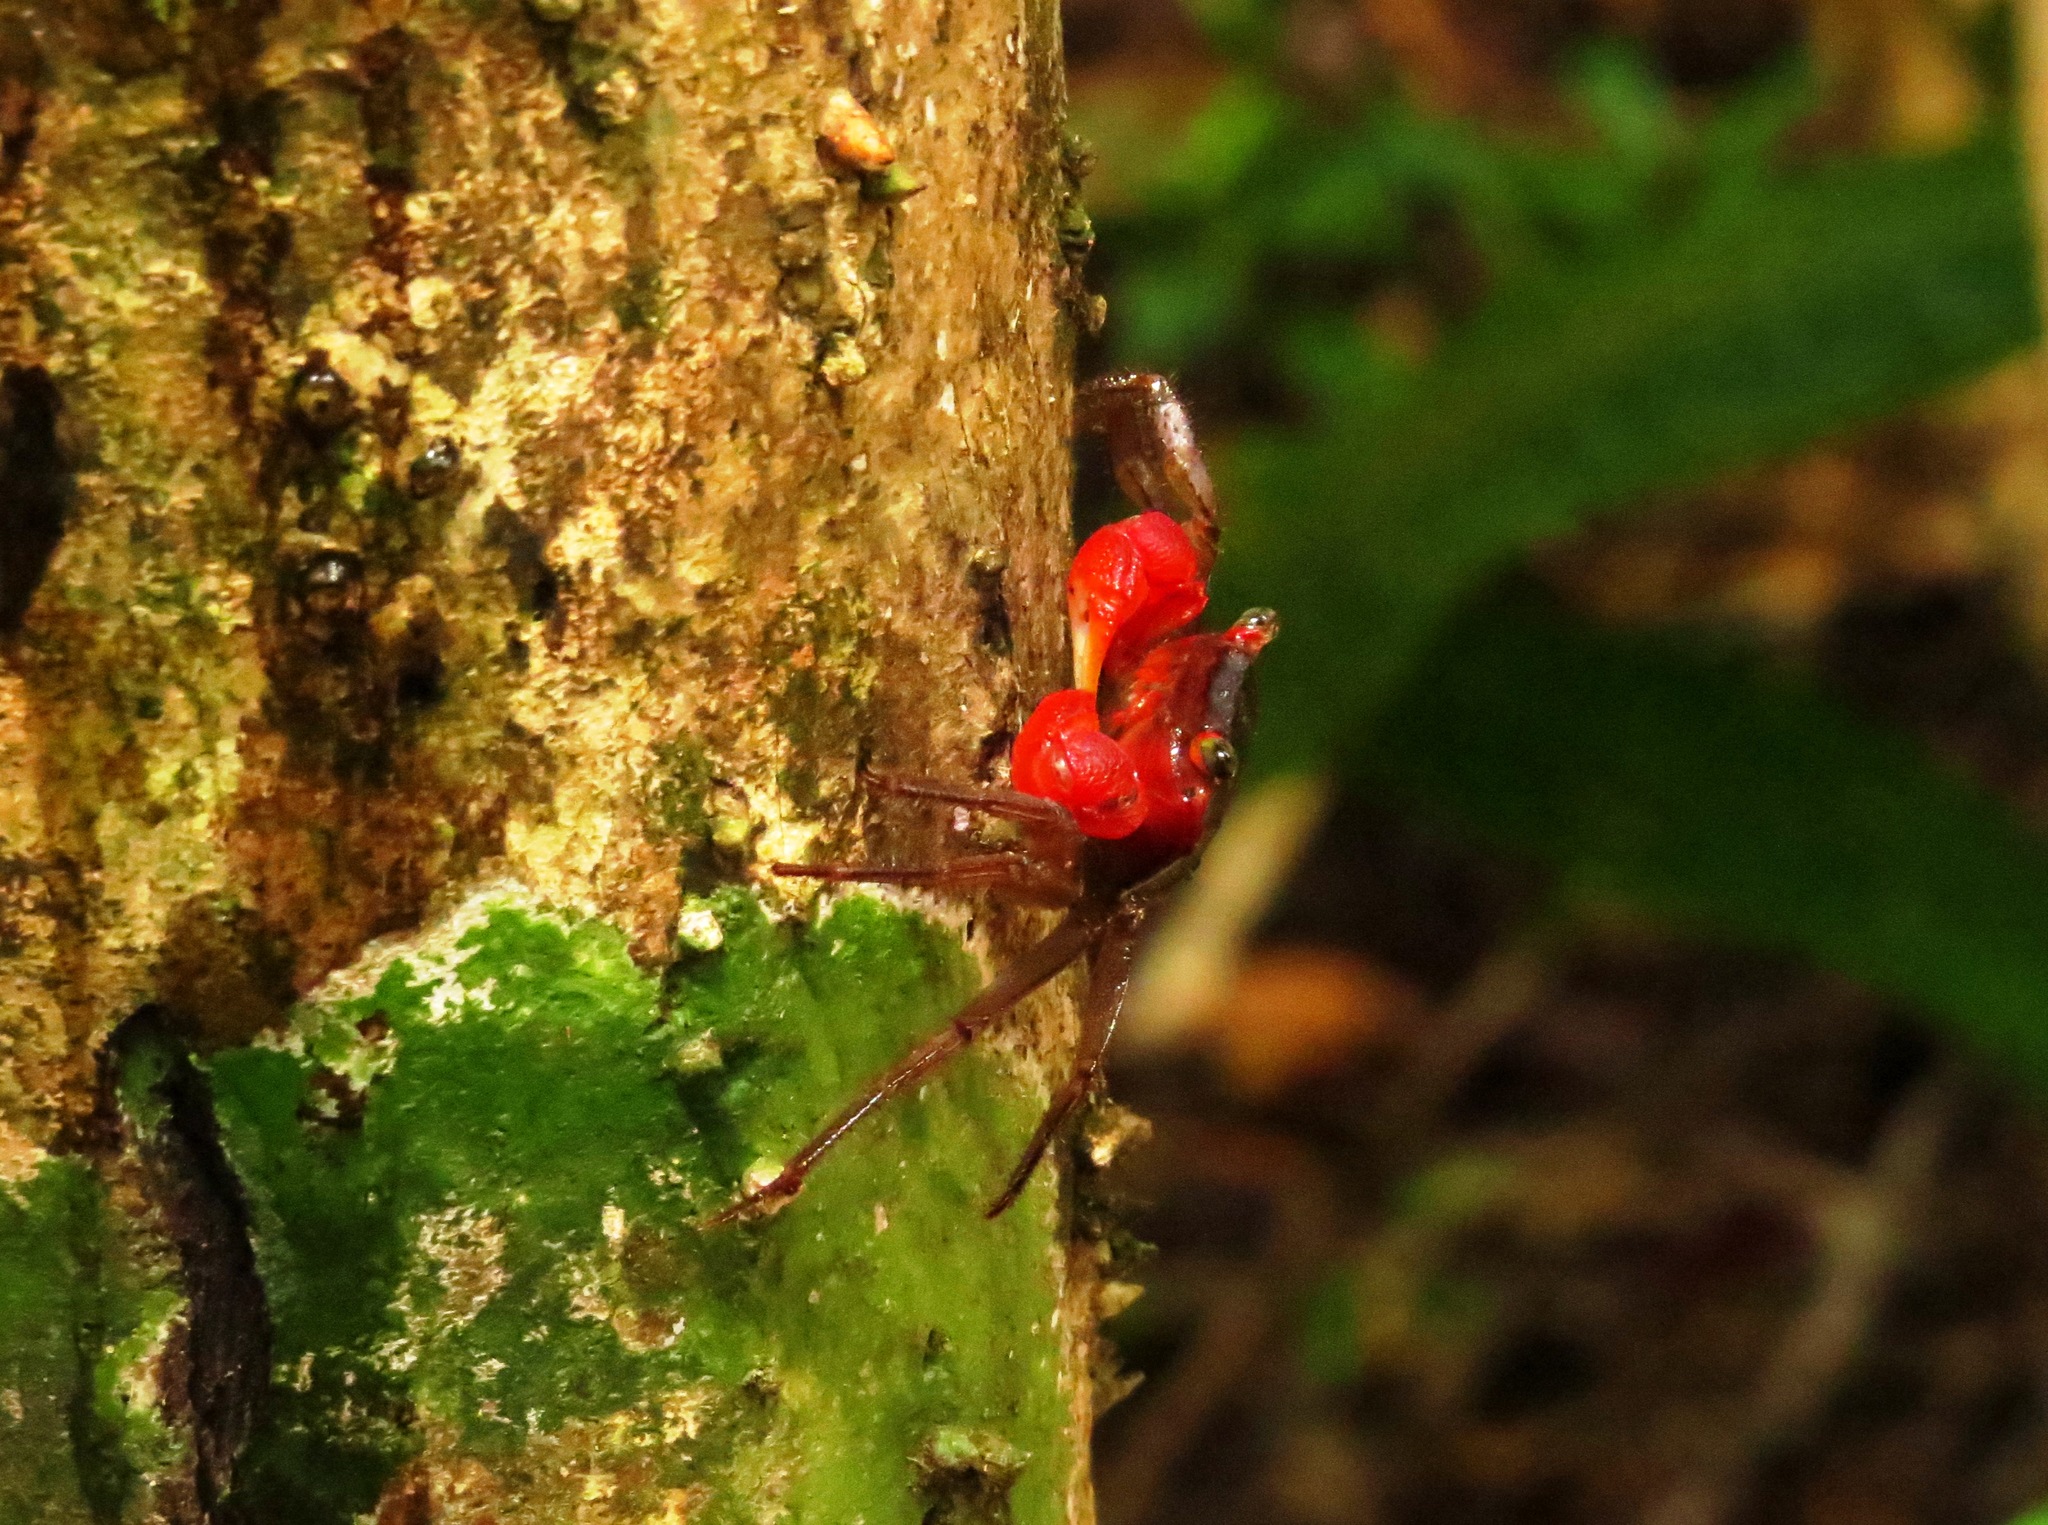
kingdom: Animalia
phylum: Arthropoda
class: Malacostraca
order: Decapoda
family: Sesarmidae
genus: Scandarma
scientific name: Scandarma gracilipes
